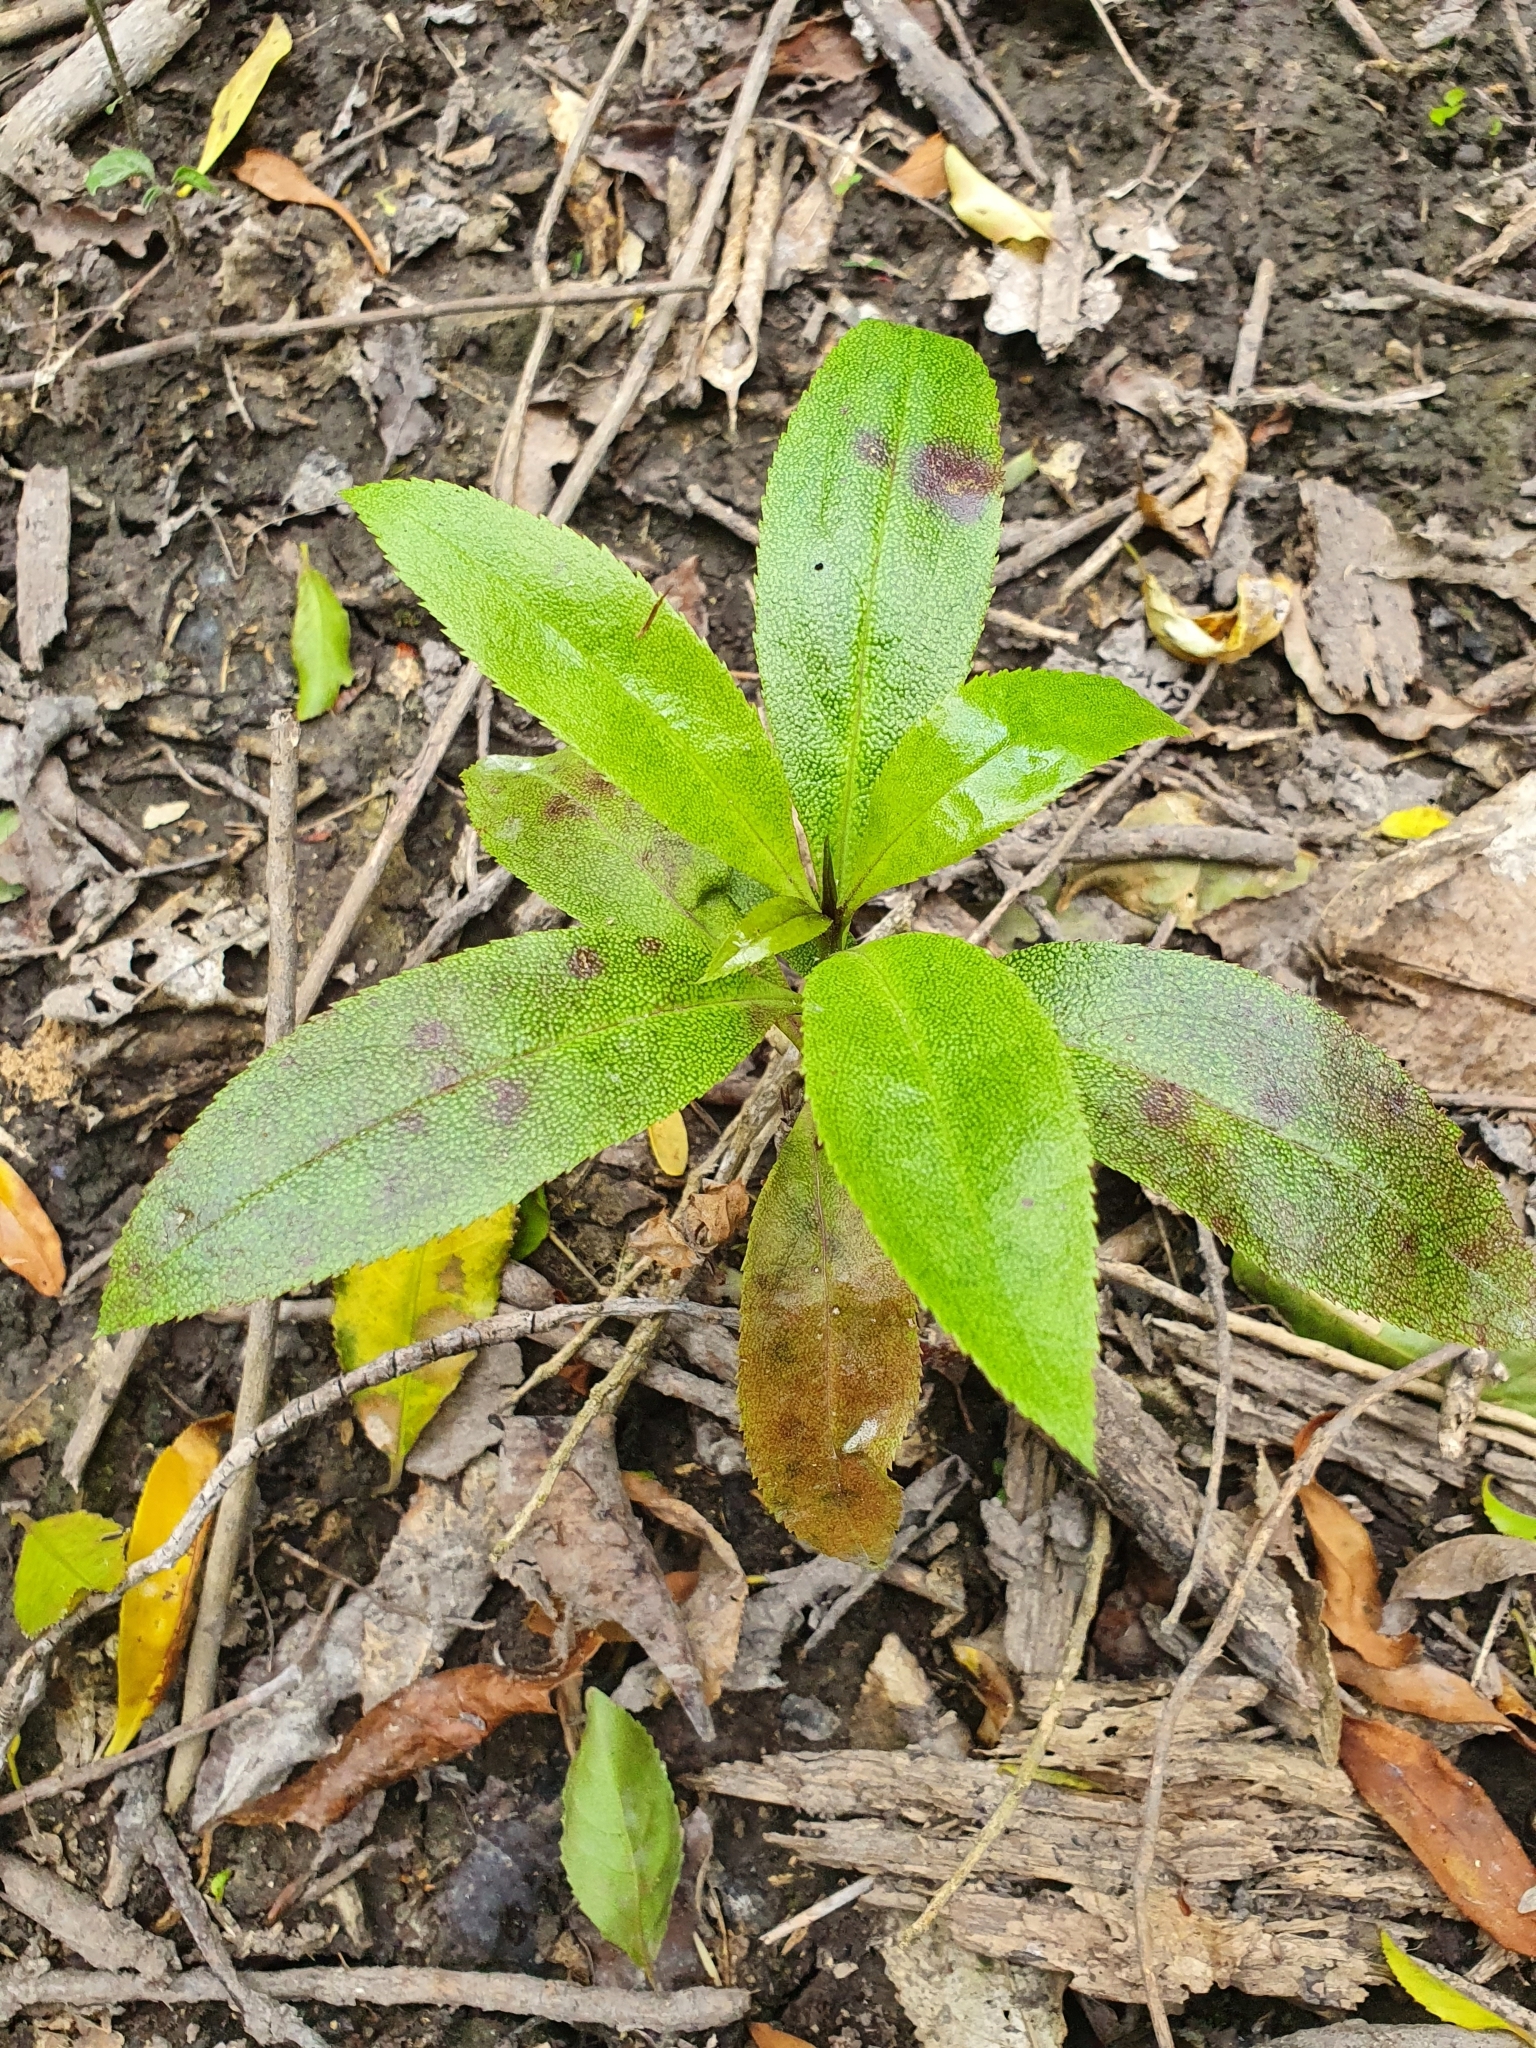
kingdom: Plantae
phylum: Tracheophyta
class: Magnoliopsida
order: Lamiales
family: Scrophulariaceae
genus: Myoporum
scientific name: Myoporum laetum
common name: Ngaio tree
